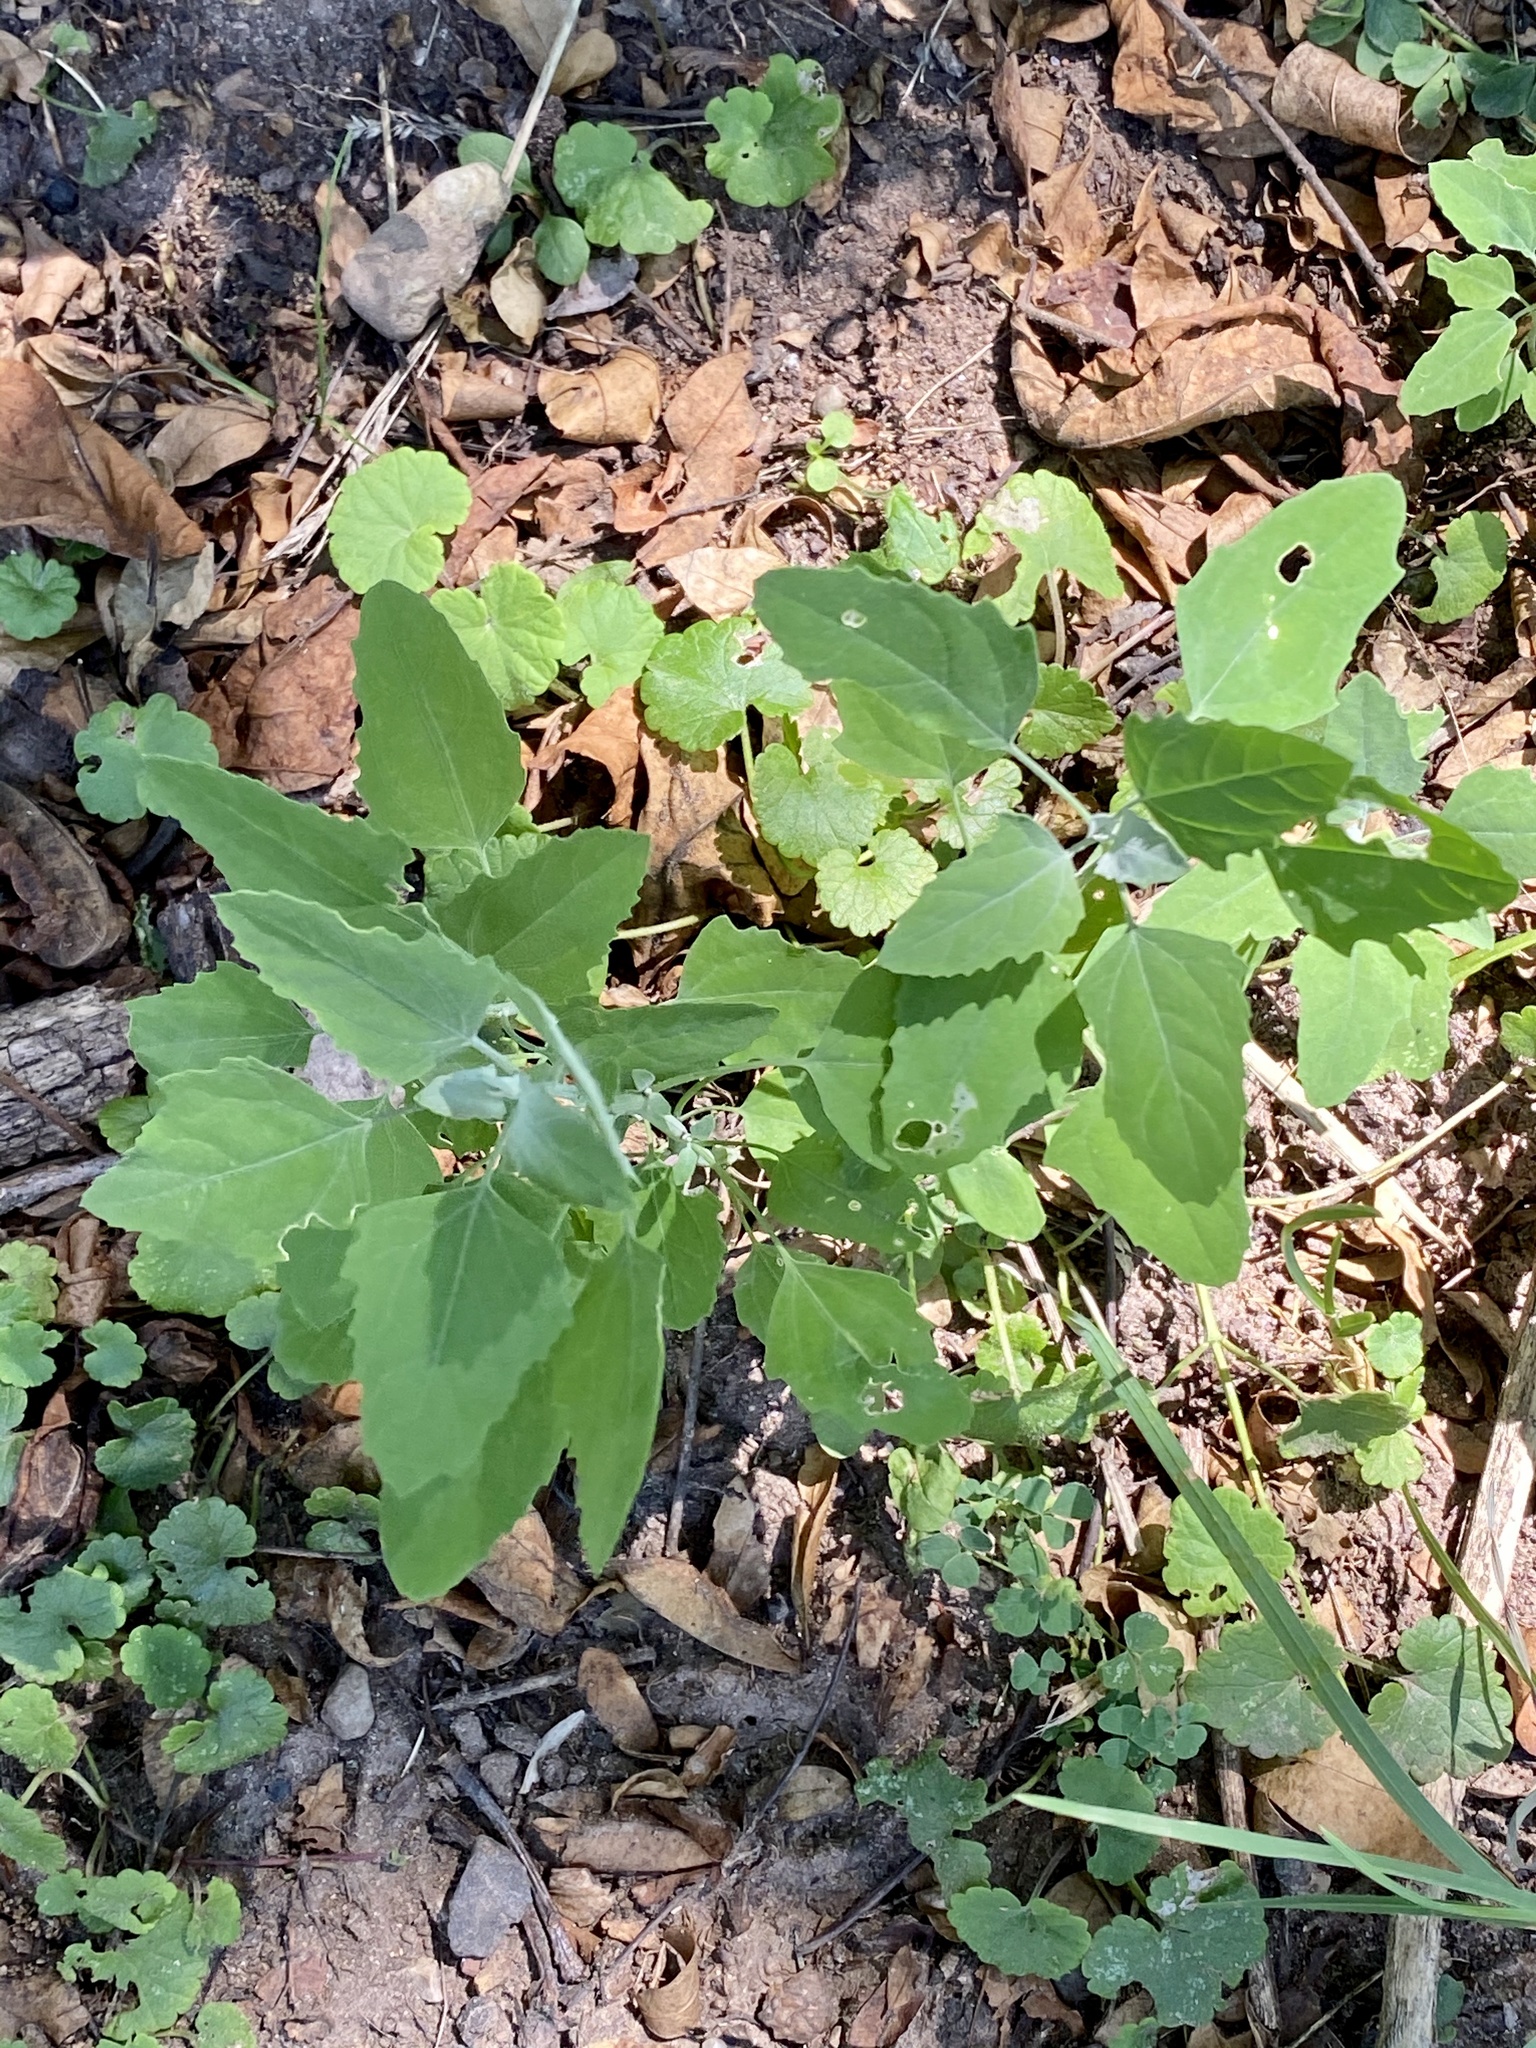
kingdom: Plantae
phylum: Tracheophyta
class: Magnoliopsida
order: Caryophyllales
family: Amaranthaceae
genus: Chenopodium
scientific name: Chenopodium album
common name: Fat-hen
